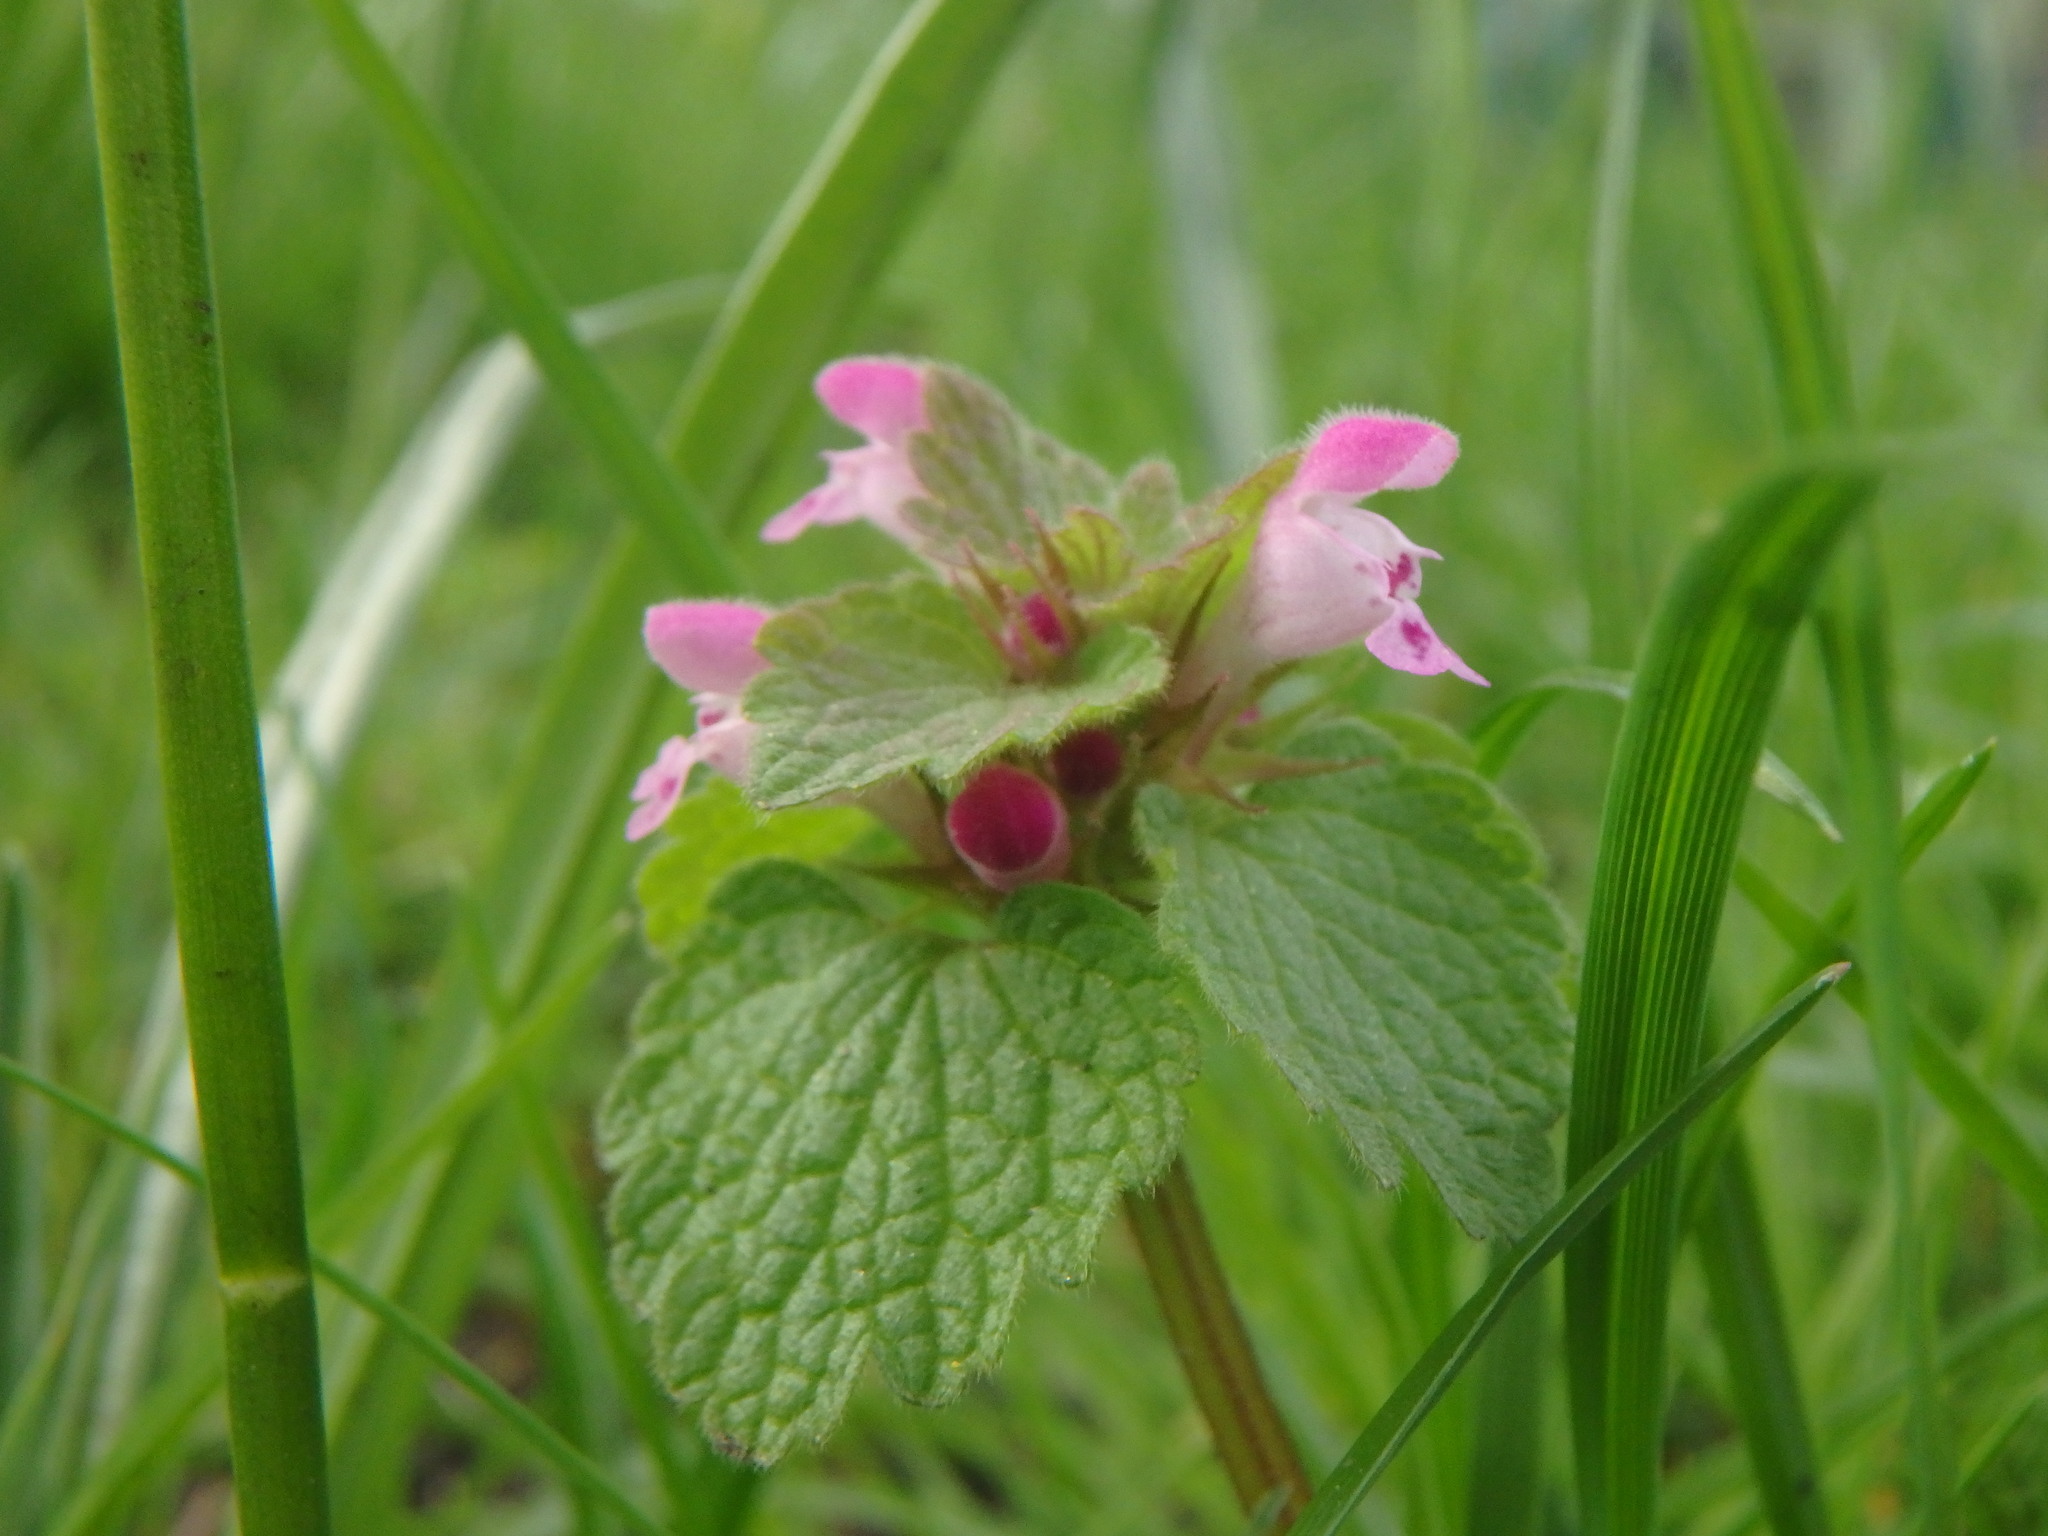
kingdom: Plantae
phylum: Tracheophyta
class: Magnoliopsida
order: Lamiales
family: Lamiaceae
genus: Lamium
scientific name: Lamium purpureum
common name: Red dead-nettle
